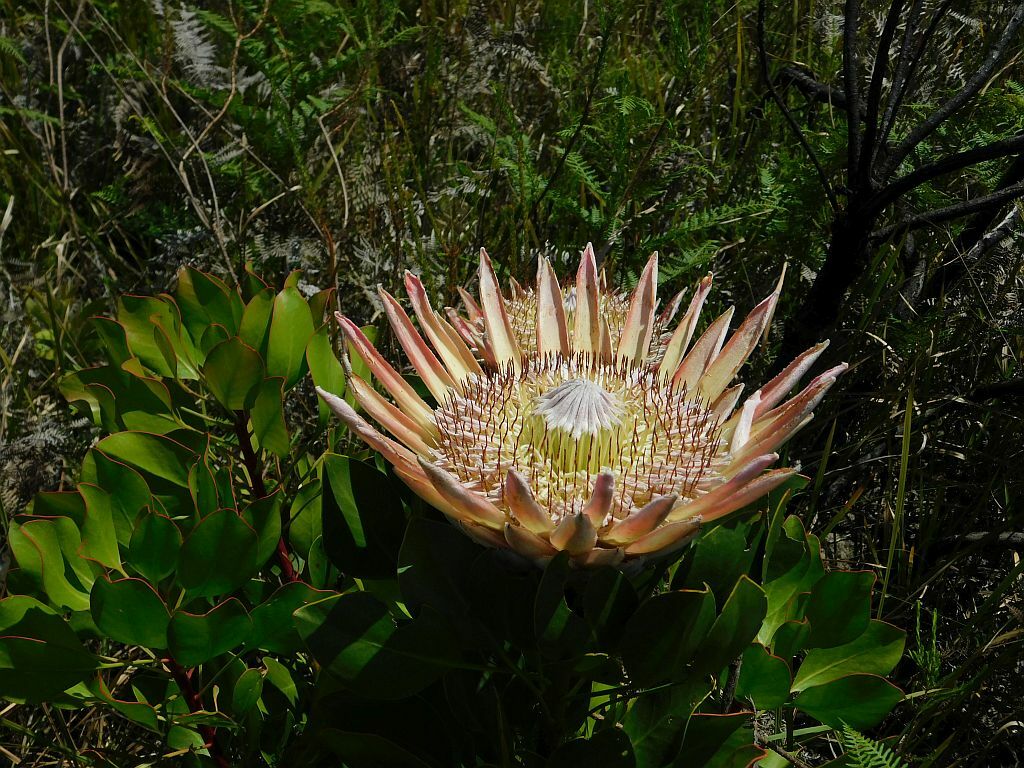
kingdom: Plantae
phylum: Tracheophyta
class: Magnoliopsida
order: Proteales
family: Proteaceae
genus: Protea
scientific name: Protea cynaroides
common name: King protea
